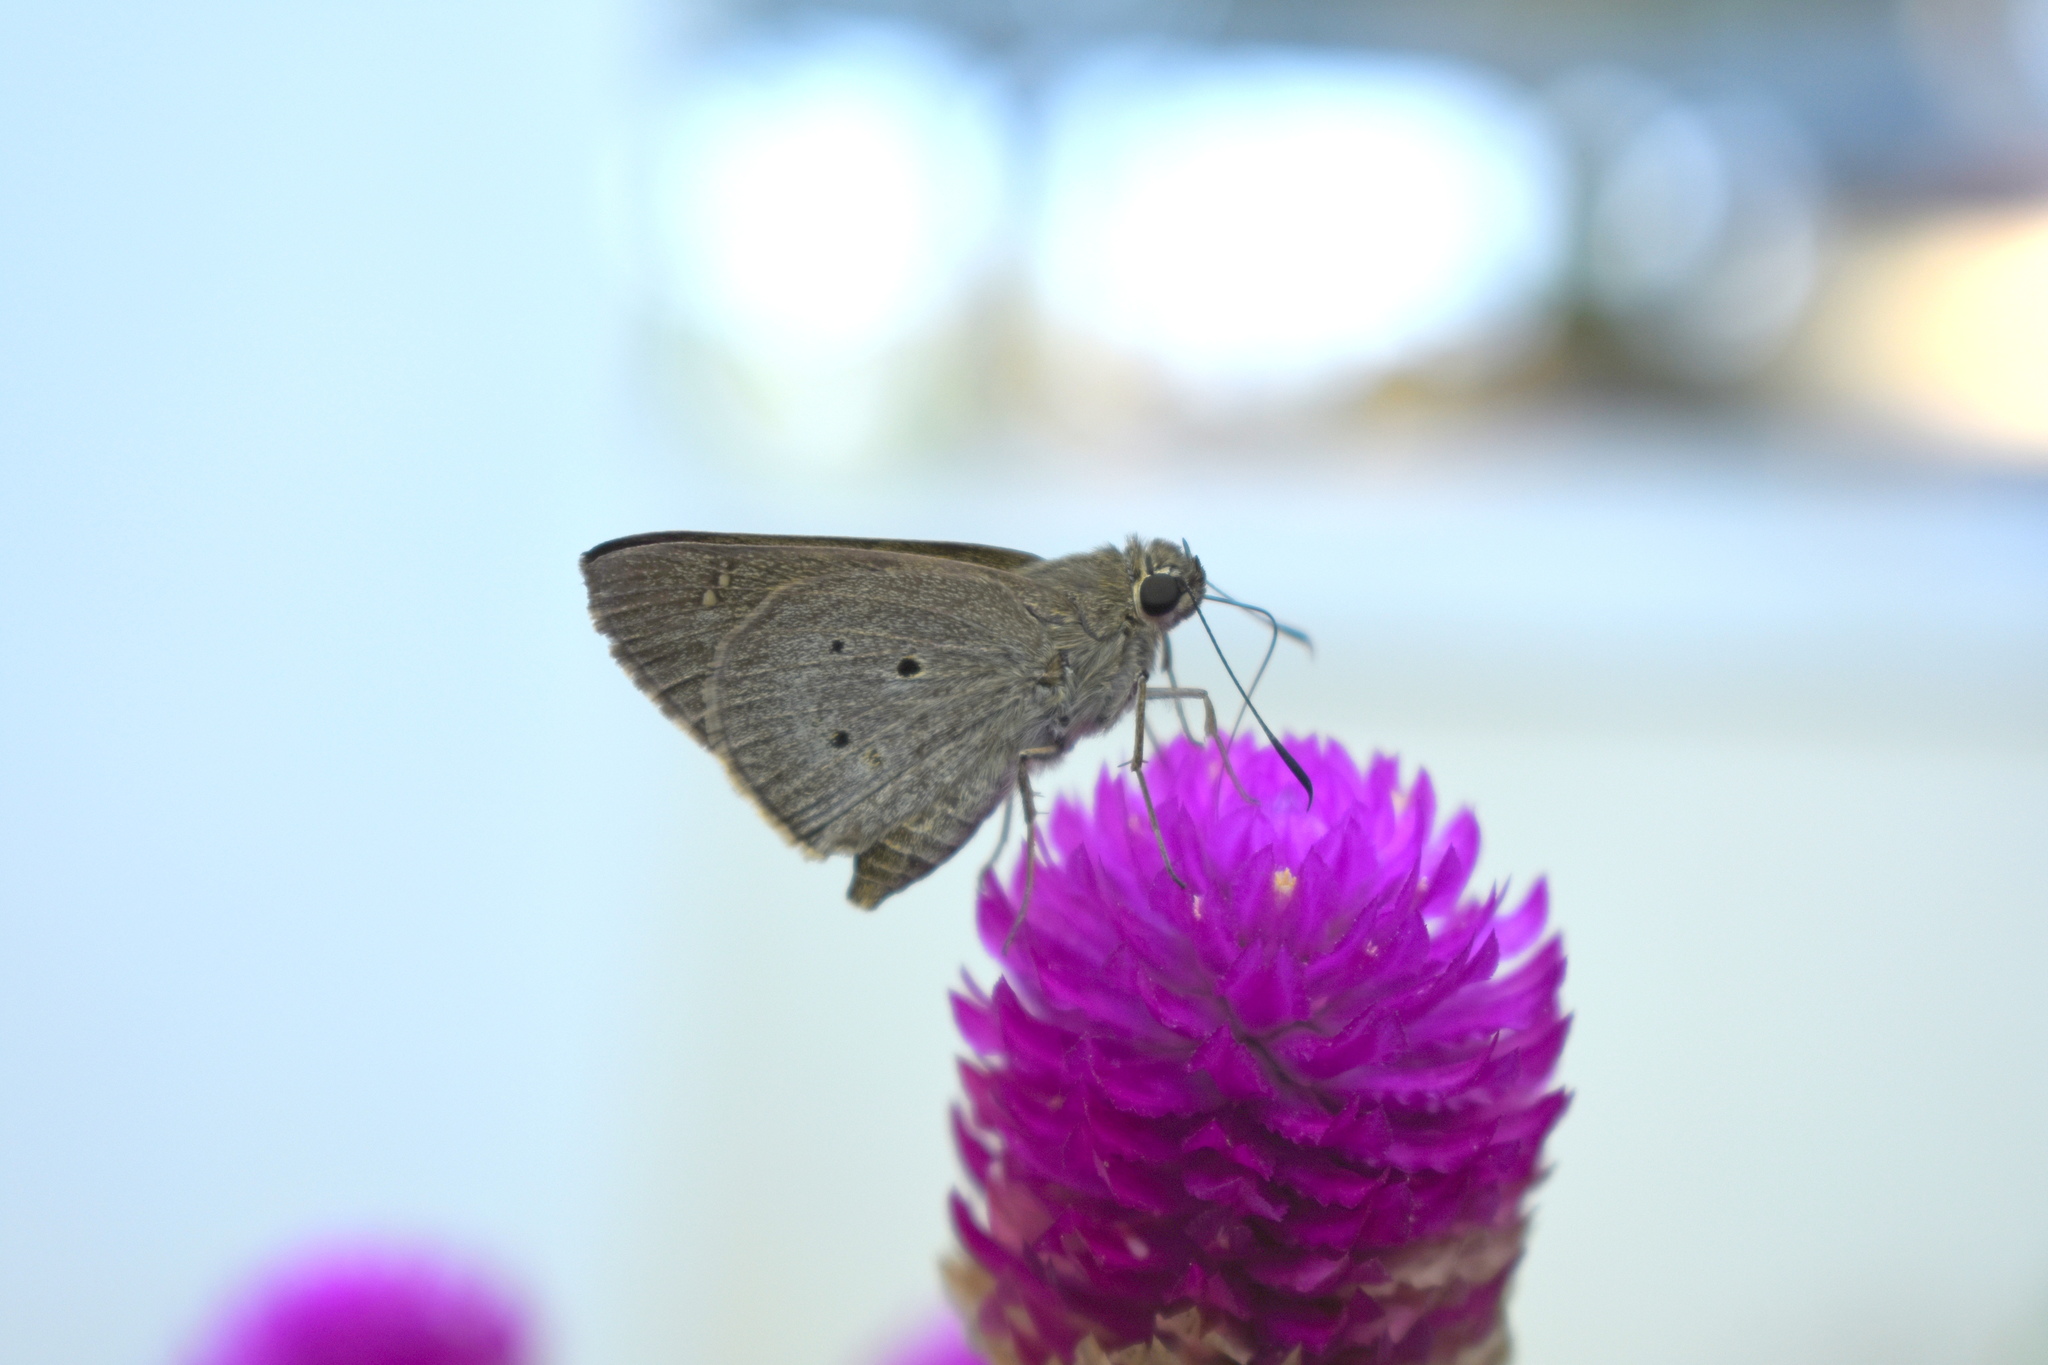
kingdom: Animalia
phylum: Arthropoda
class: Insecta
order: Lepidoptera
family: Hesperiidae
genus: Suastus
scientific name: Suastus gremius
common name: Indian palm bob
